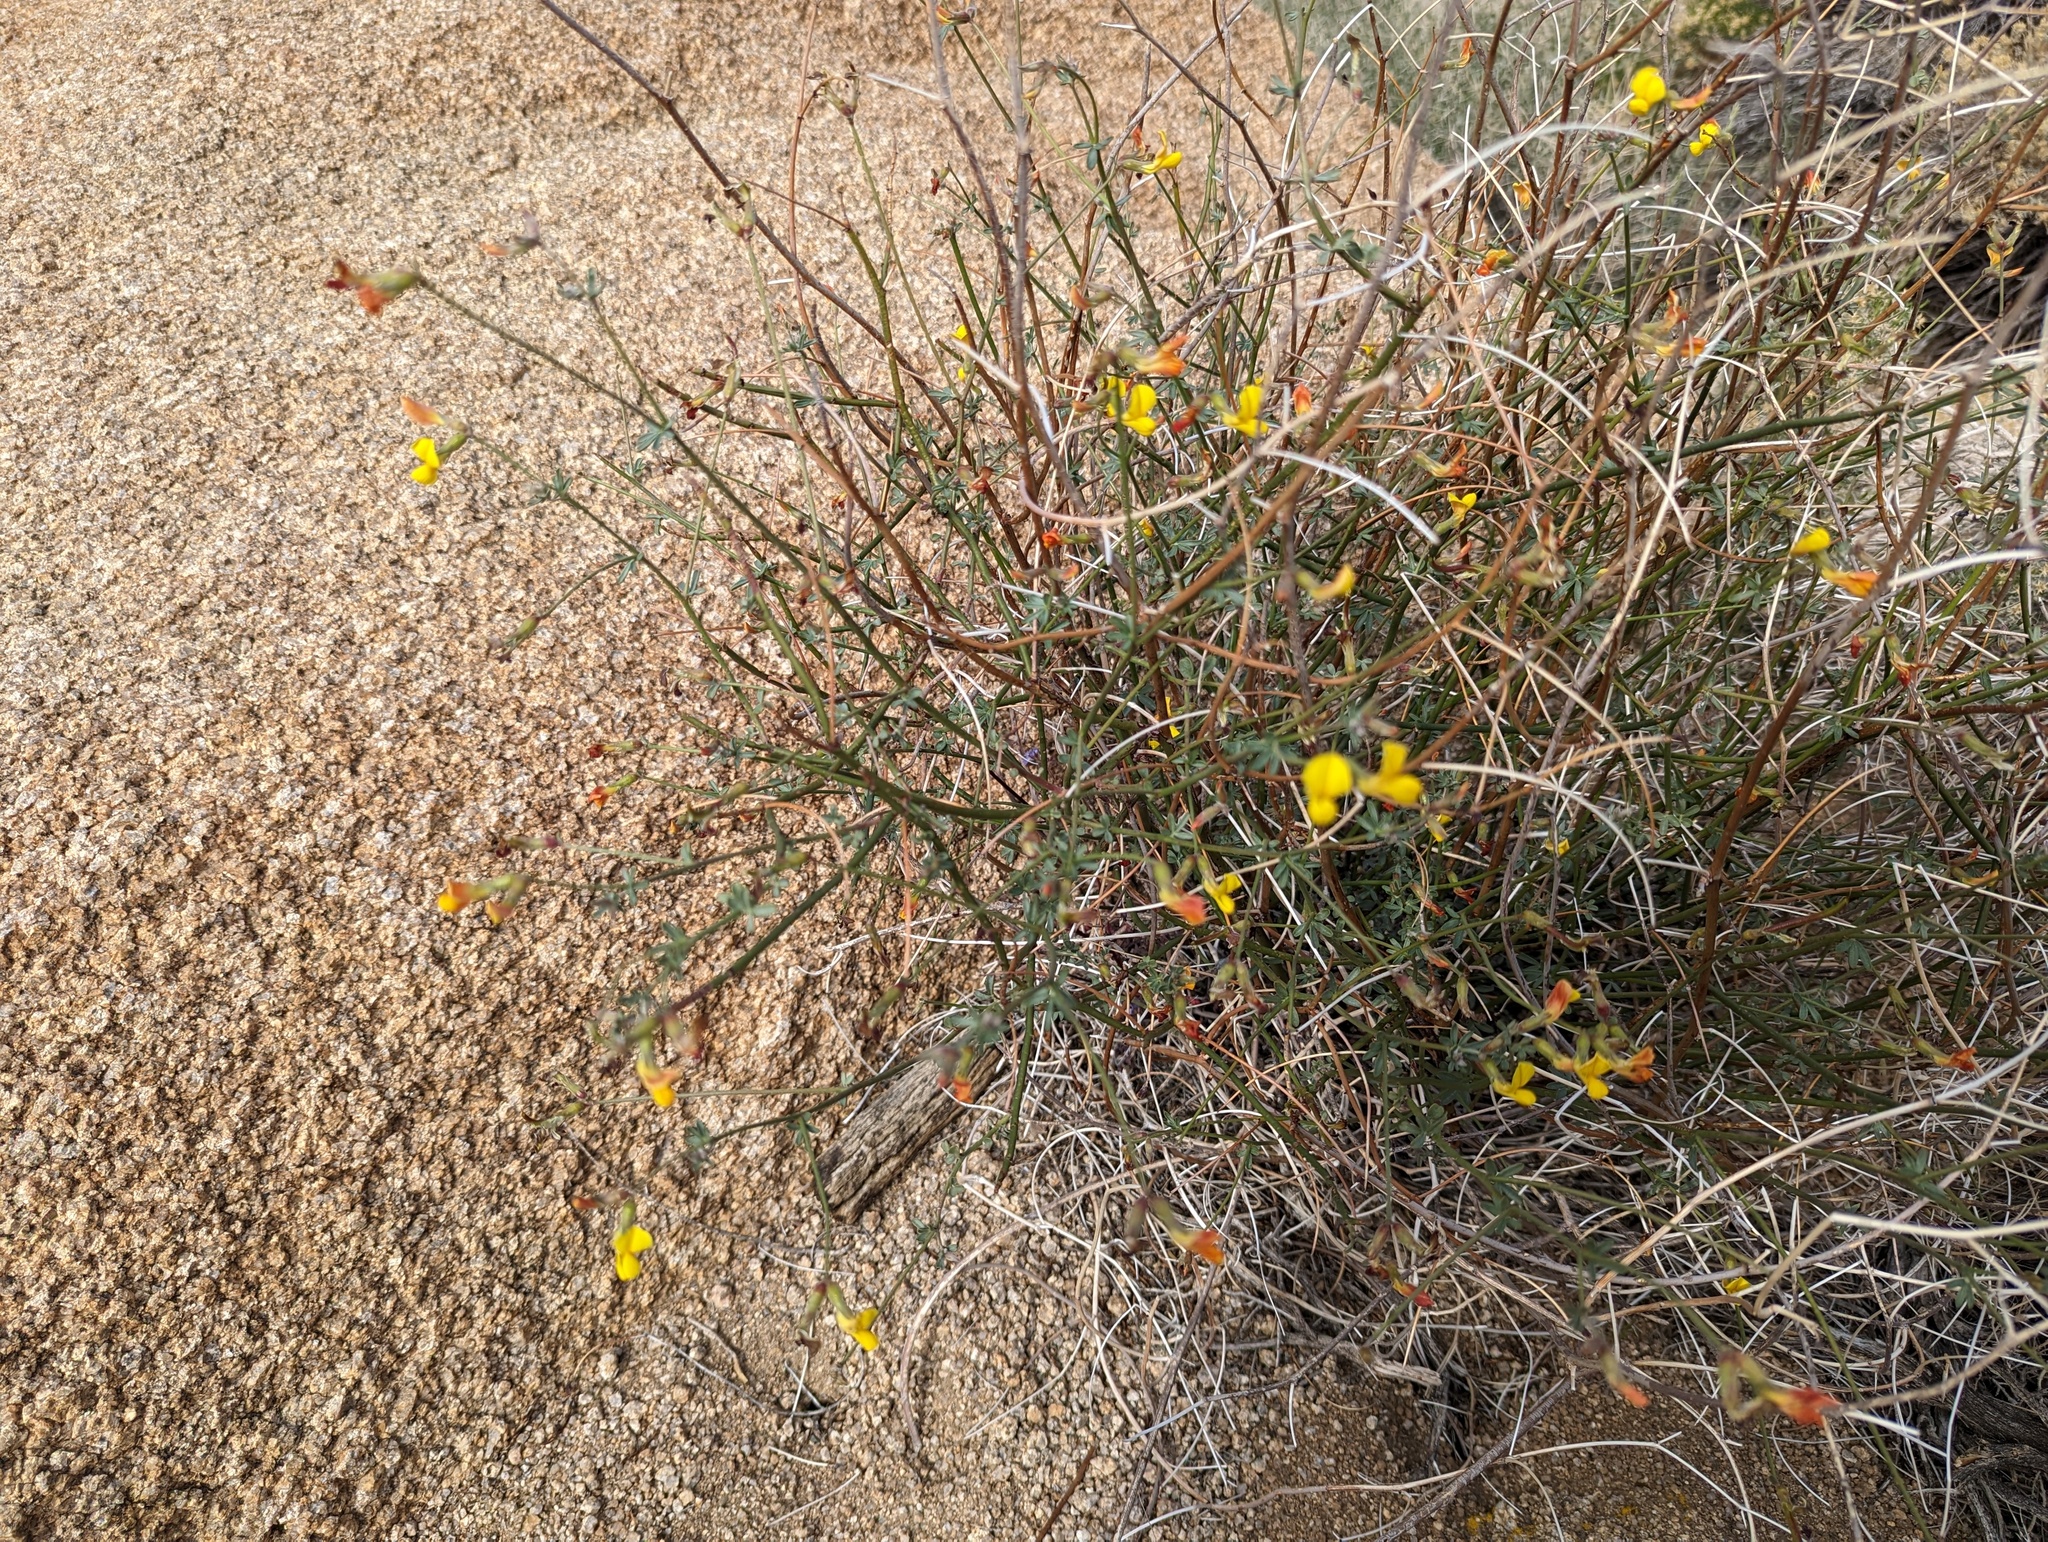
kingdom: Plantae
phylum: Tracheophyta
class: Magnoliopsida
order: Fabales
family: Fabaceae
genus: Acmispon
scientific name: Acmispon rigidus
